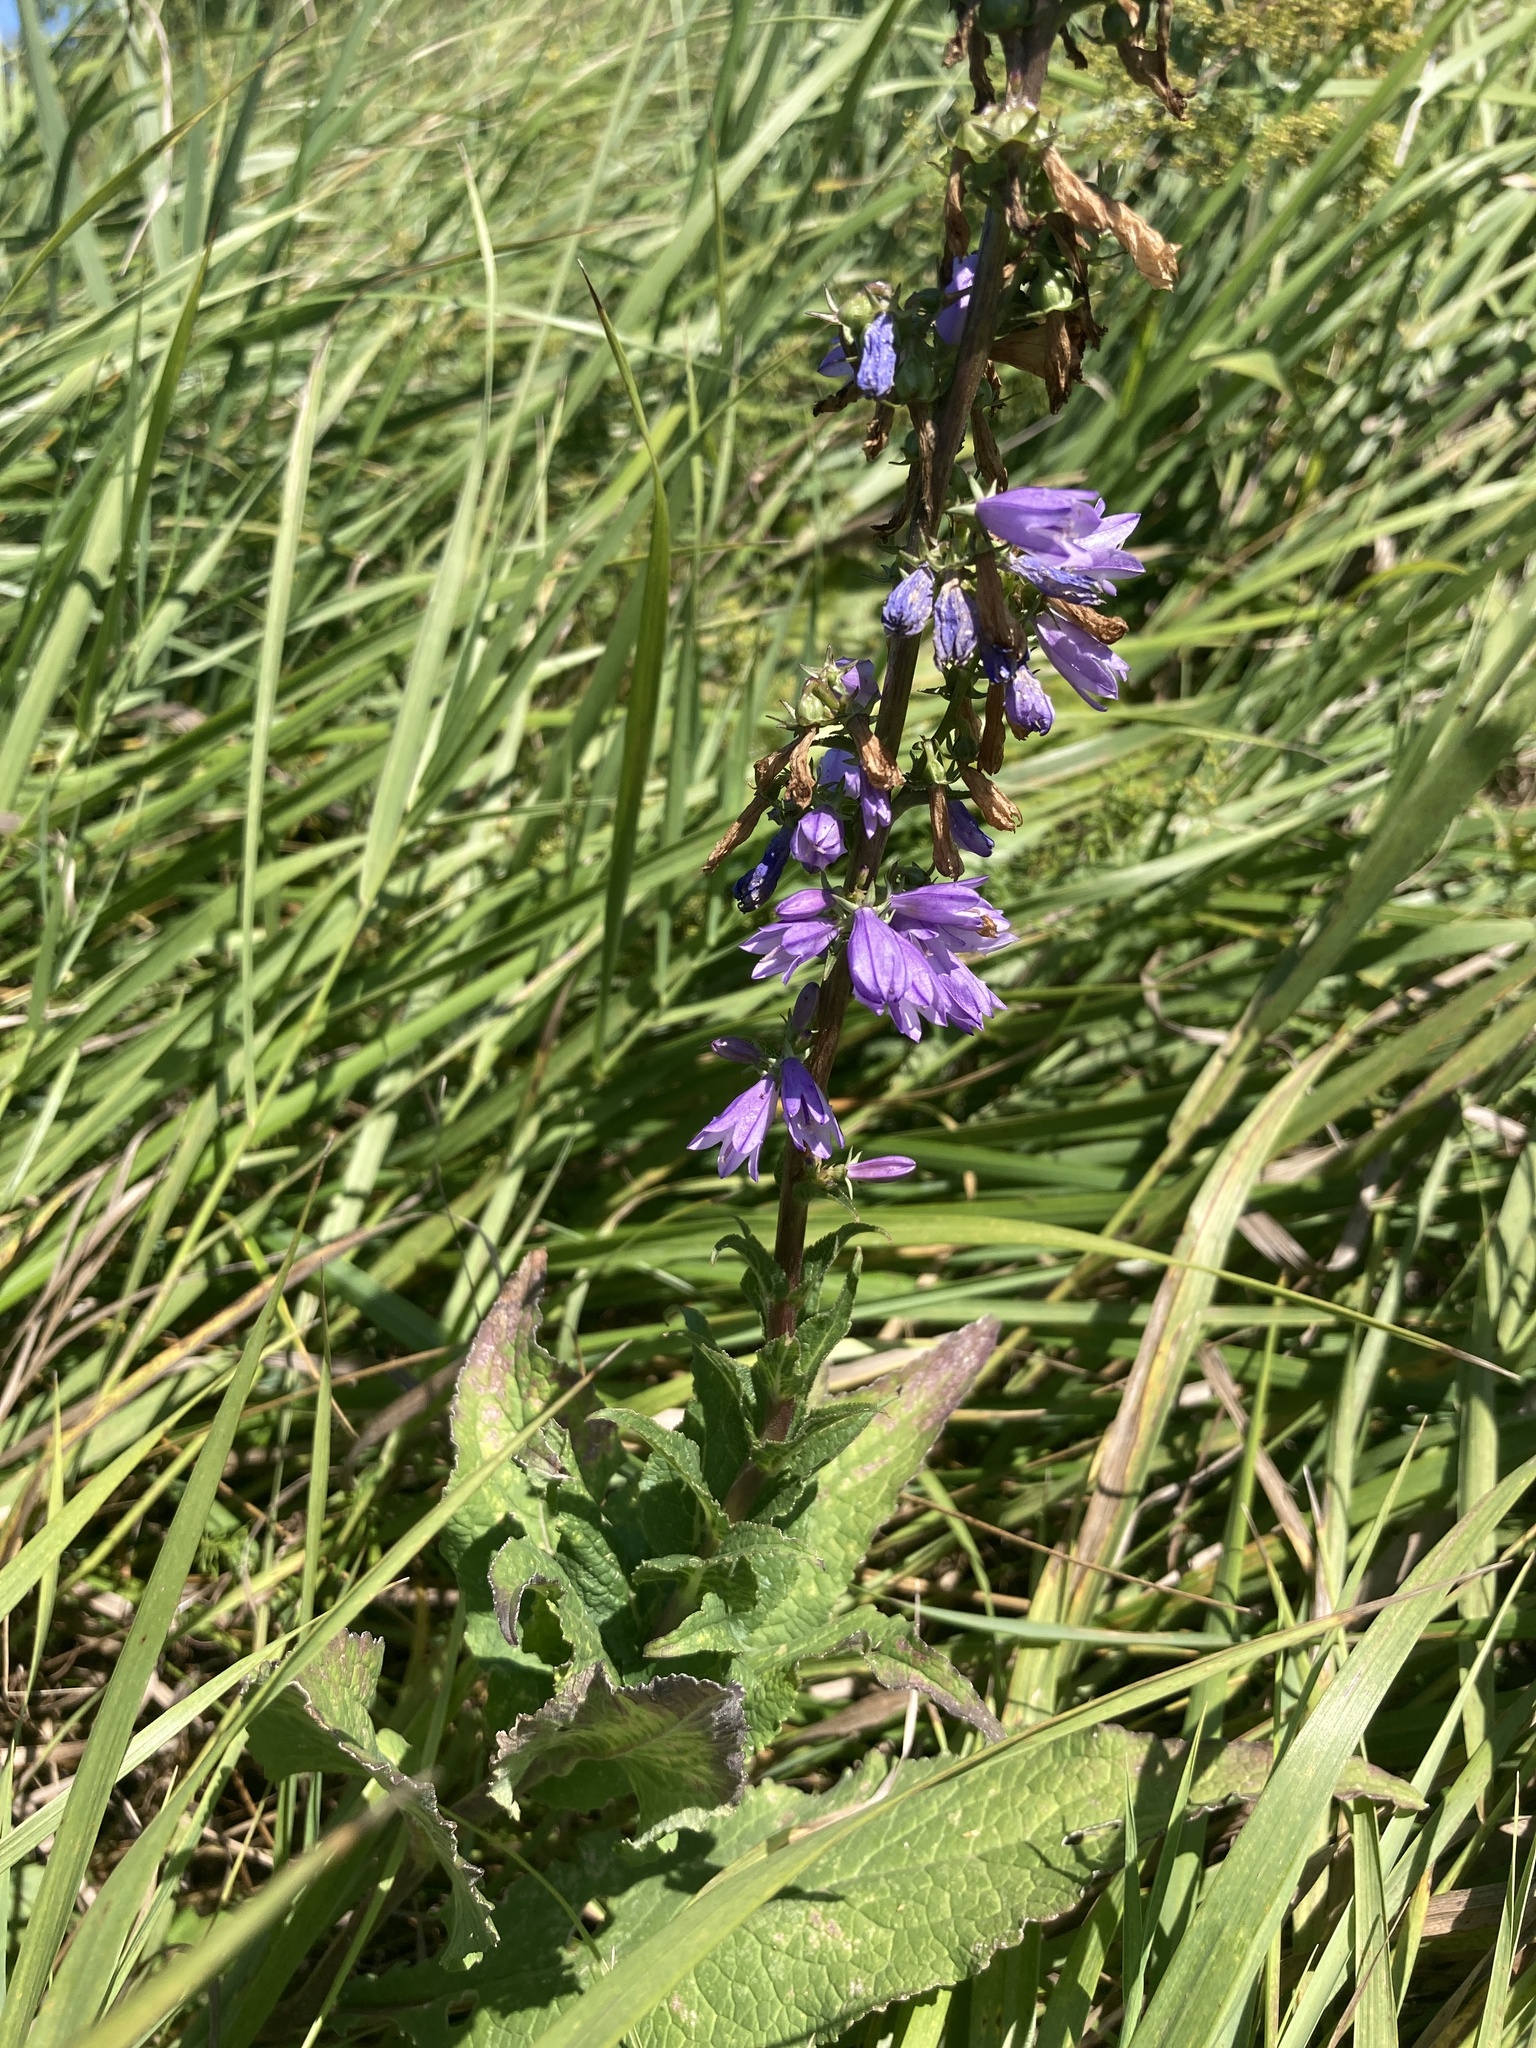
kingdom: Plantae
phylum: Tracheophyta
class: Magnoliopsida
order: Asterales
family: Campanulaceae
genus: Campanula
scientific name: Campanula bononiensis
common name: Pale bellflower
